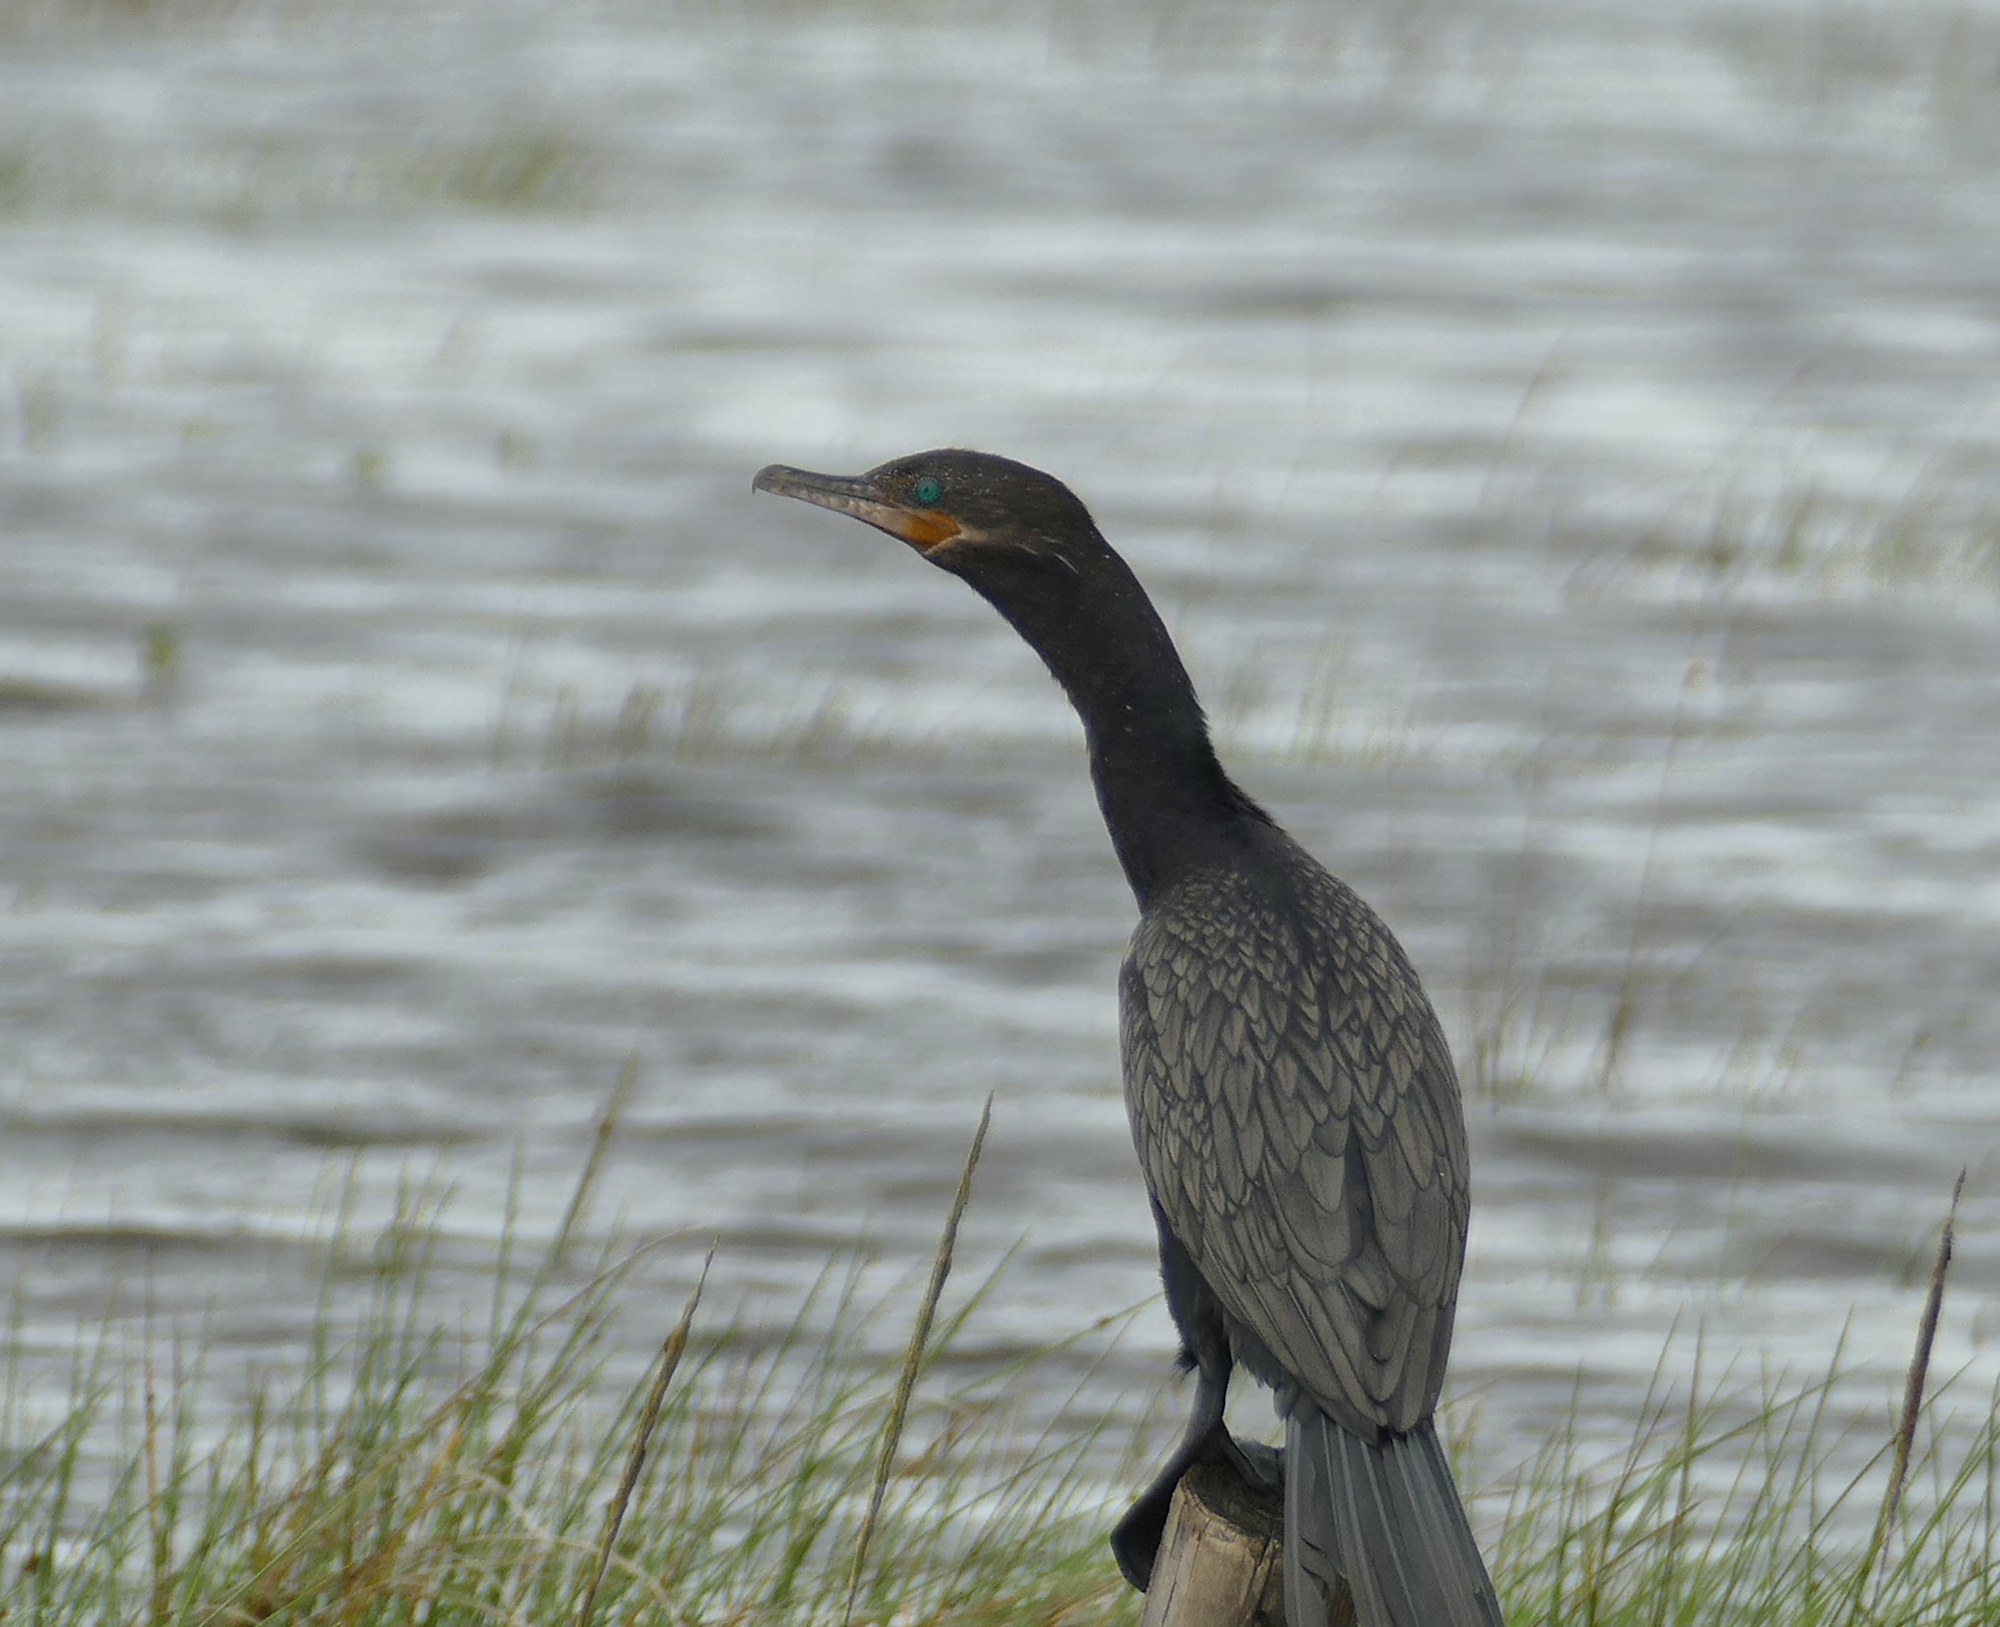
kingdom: Animalia
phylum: Chordata
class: Aves
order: Suliformes
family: Phalacrocoracidae
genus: Phalacrocorax
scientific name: Phalacrocorax brasilianus
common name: Neotropic cormorant
